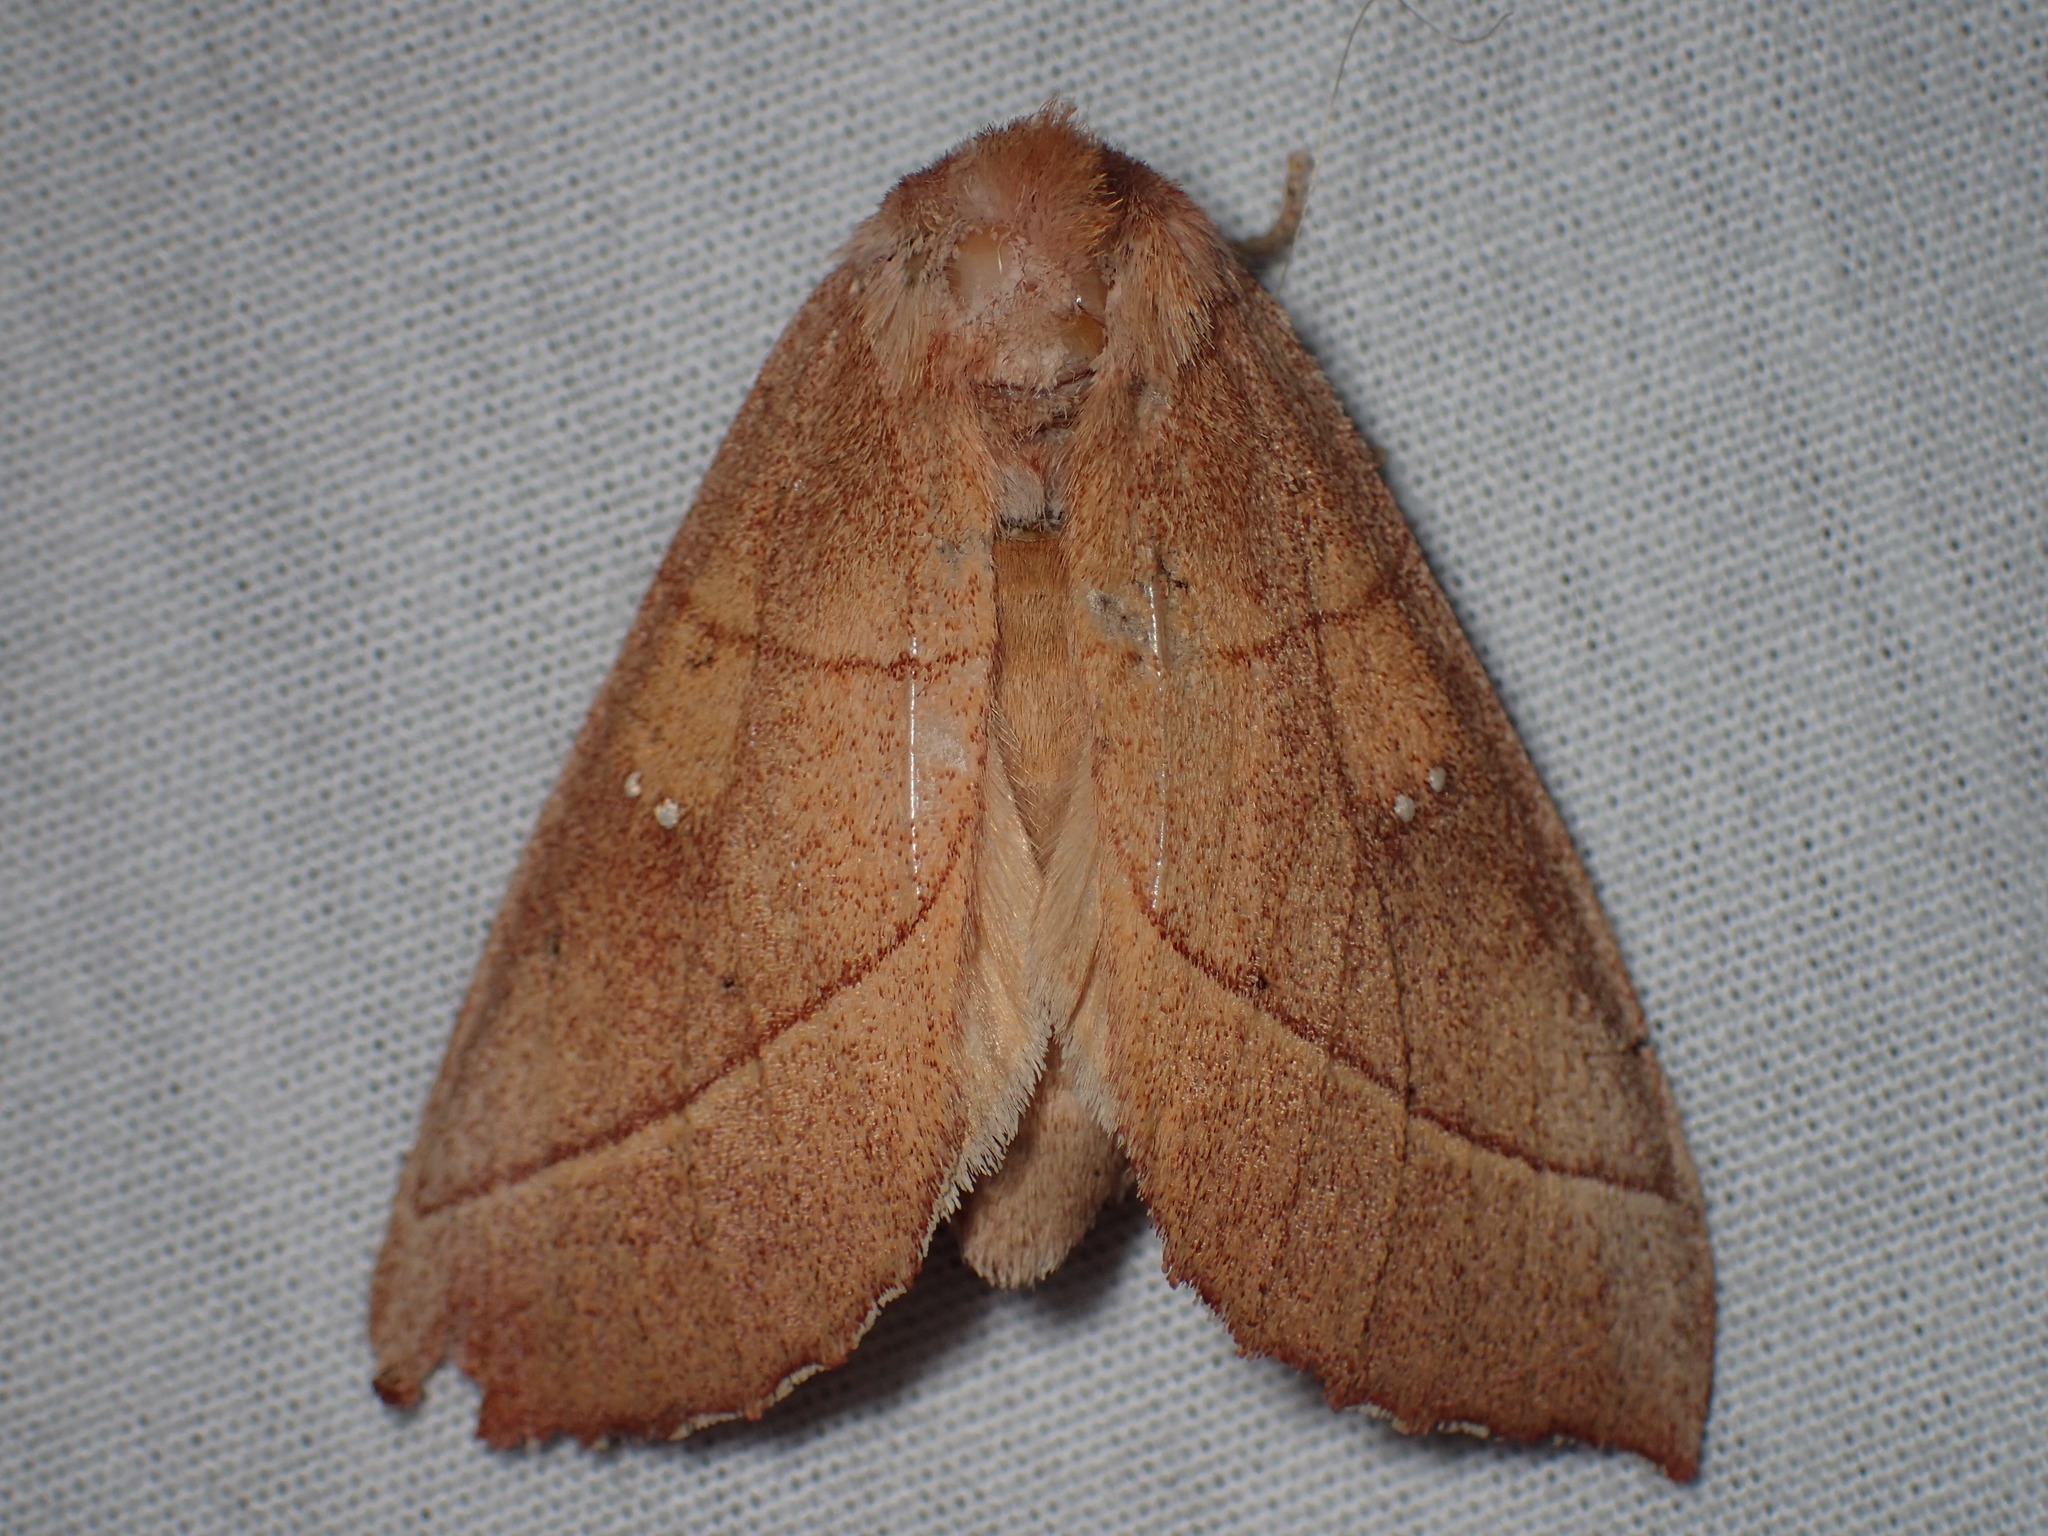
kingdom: Animalia
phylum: Arthropoda
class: Insecta
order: Lepidoptera
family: Notodontidae
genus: Nadata
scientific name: Nadata gibbosa
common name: White-dotted prominent
